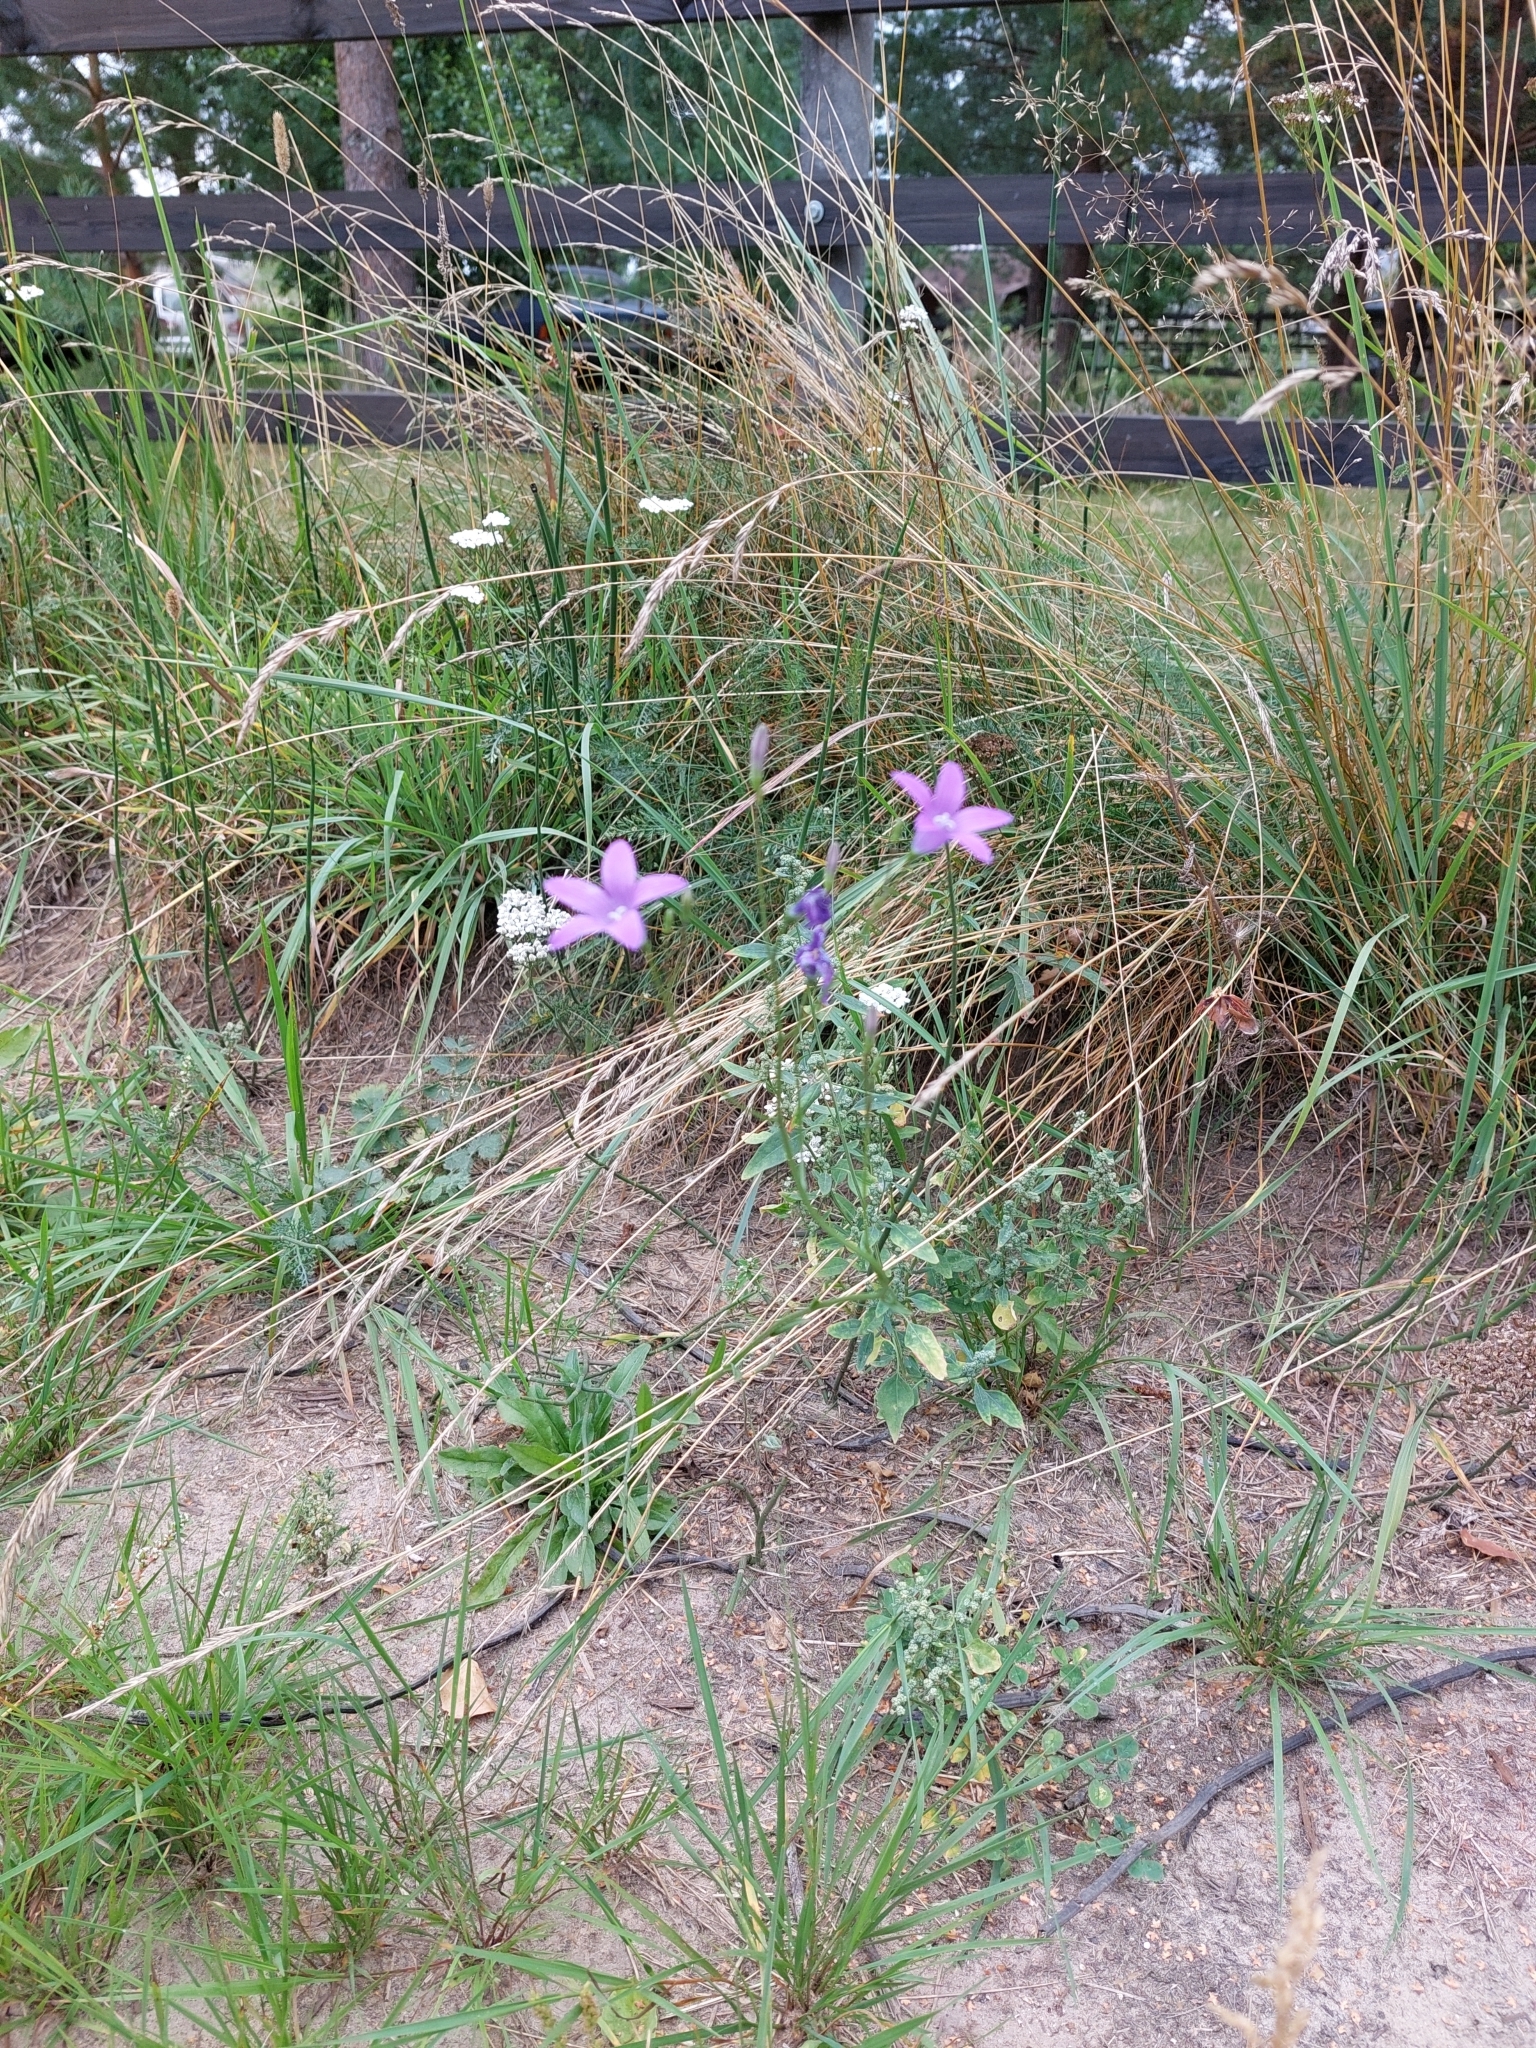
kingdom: Plantae
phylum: Tracheophyta
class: Magnoliopsida
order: Asterales
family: Campanulaceae
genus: Campanula
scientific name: Campanula patula
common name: Spreading bellflower
